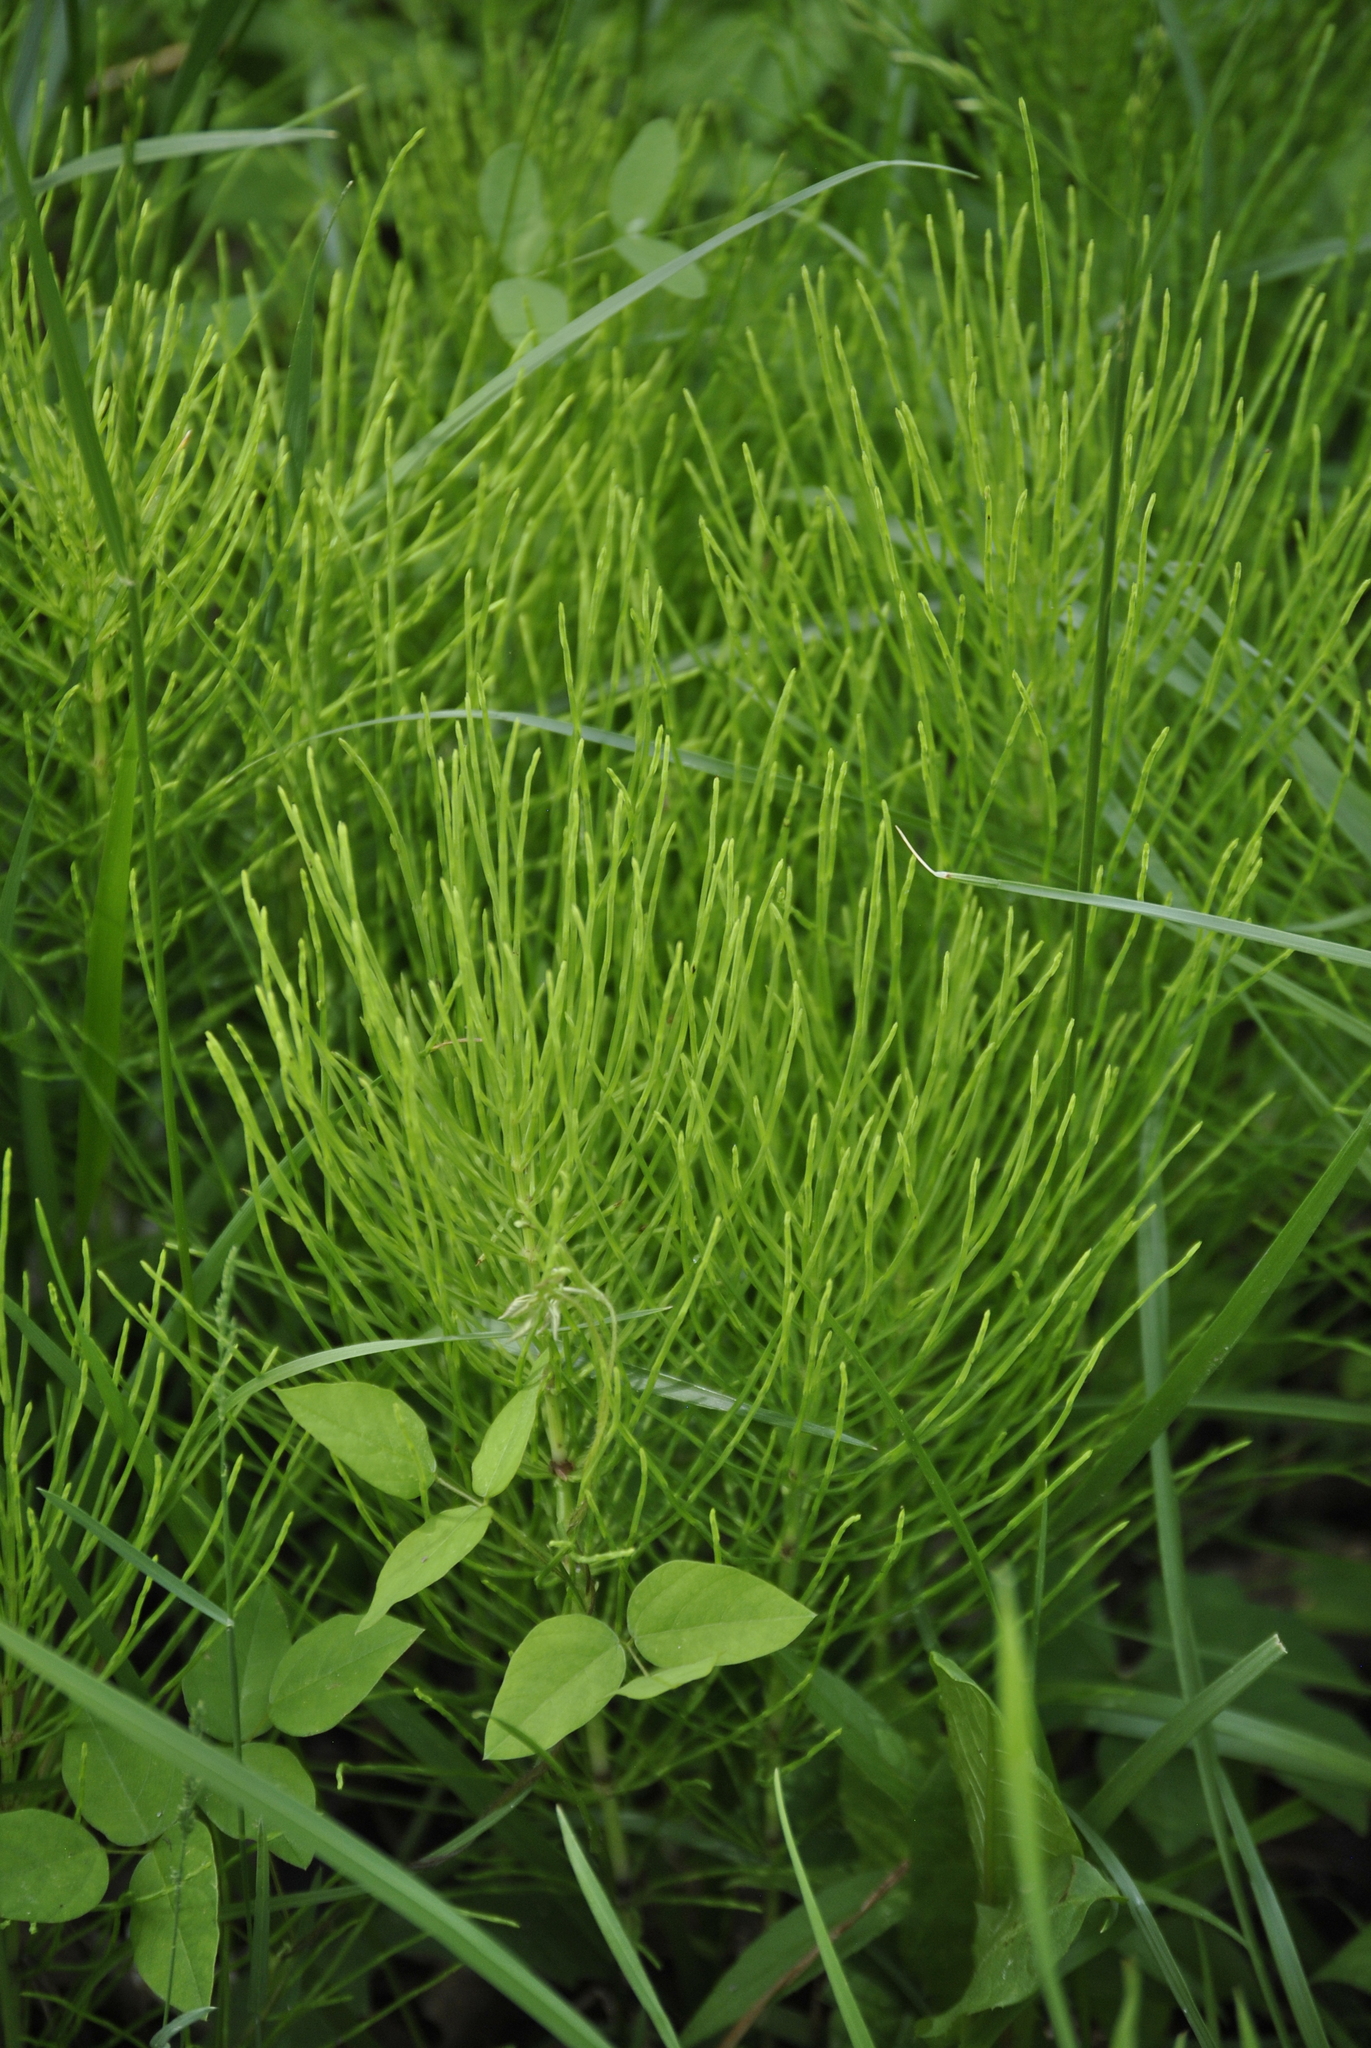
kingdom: Plantae
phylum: Tracheophyta
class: Polypodiopsida
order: Equisetales
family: Equisetaceae
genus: Equisetum
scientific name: Equisetum arvense
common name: Field horsetail
